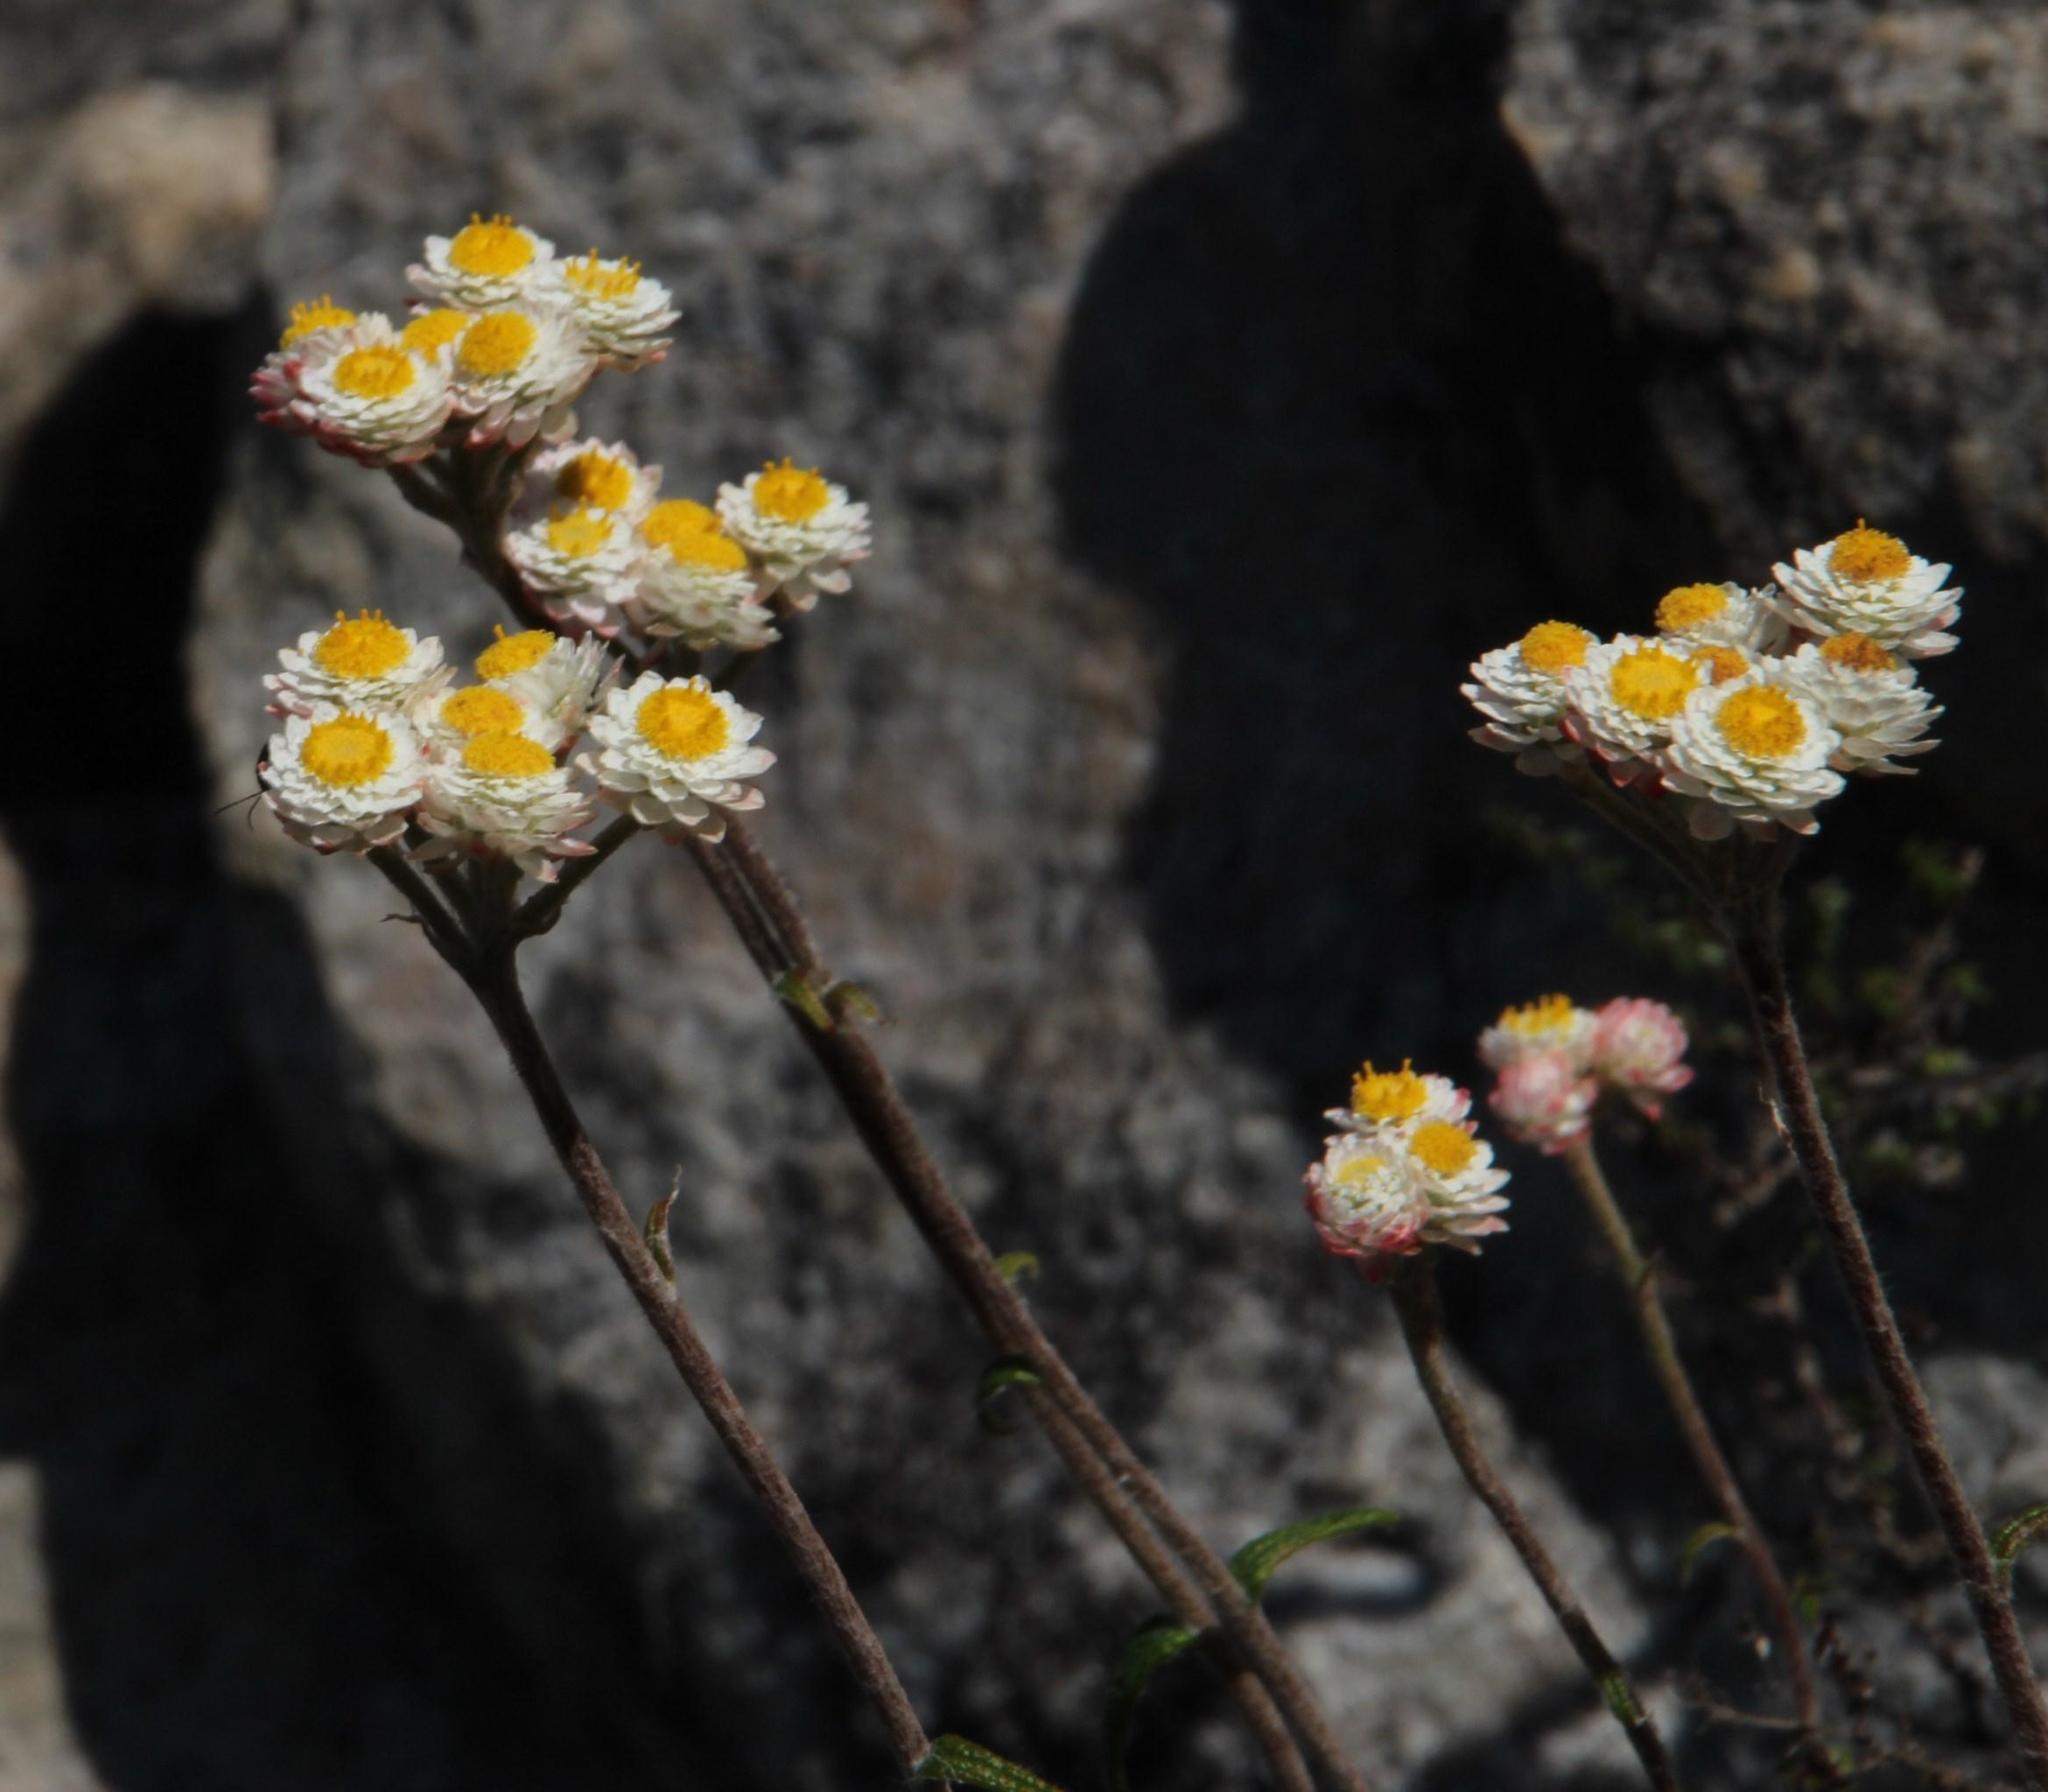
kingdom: Plantae
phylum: Tracheophyta
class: Magnoliopsida
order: Asterales
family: Asteraceae
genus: Helichrysum
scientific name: Helichrysum felinum
